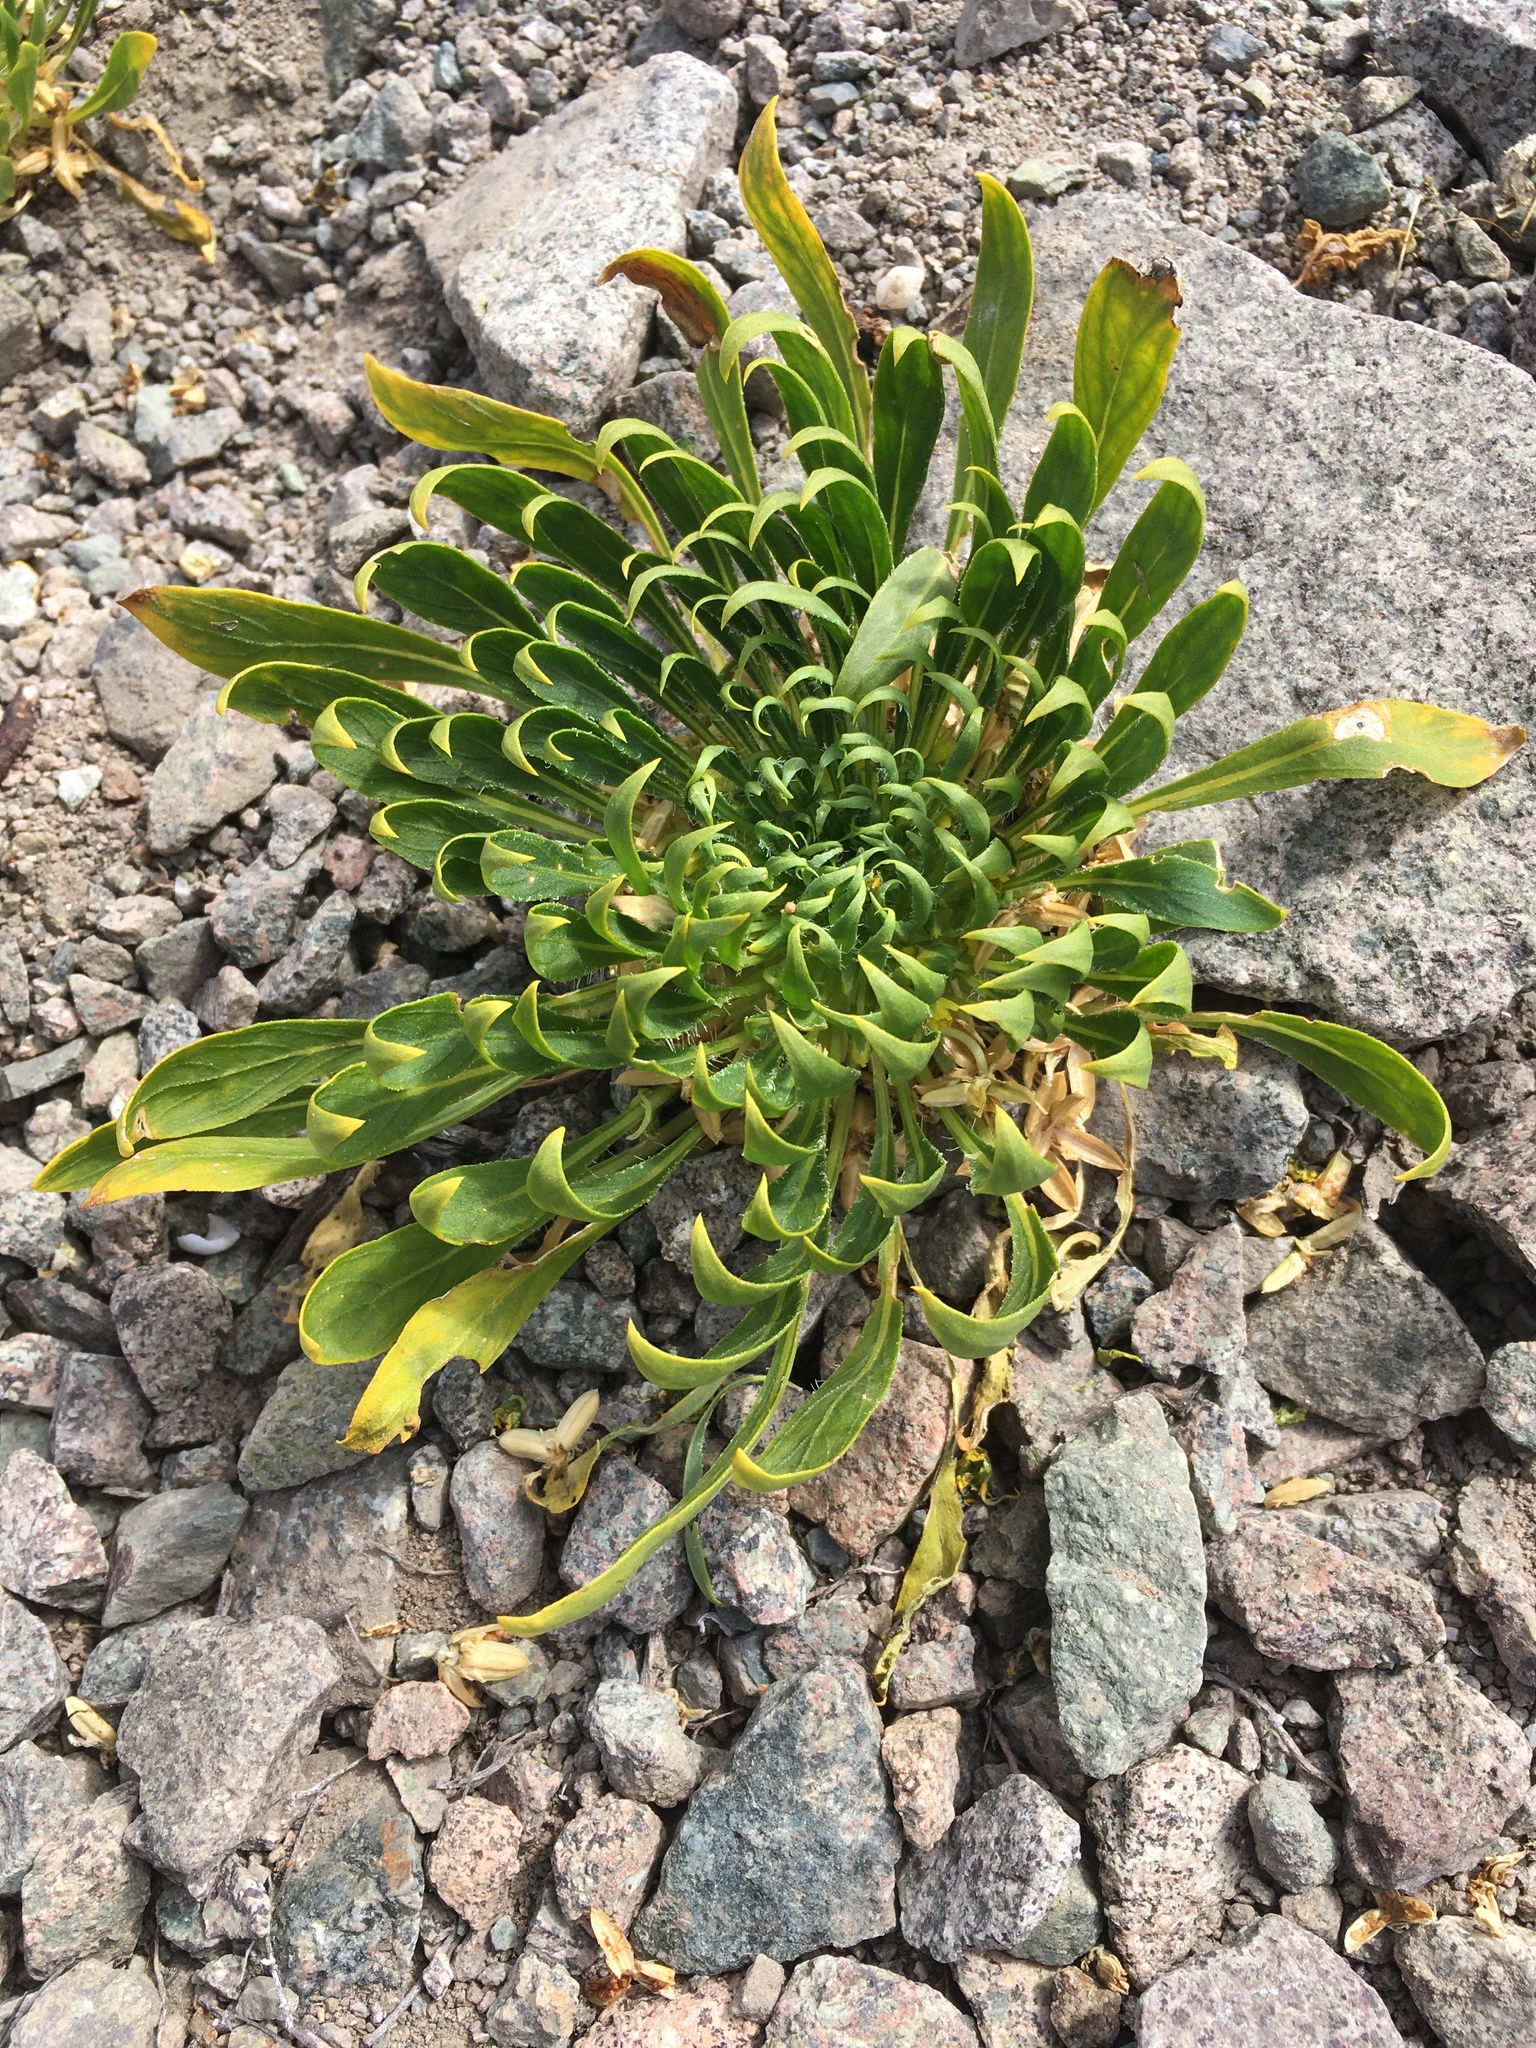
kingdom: Plantae
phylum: Tracheophyta
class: Magnoliopsida
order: Malpighiales
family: Violaceae
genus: Viola
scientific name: Viola polypoda
